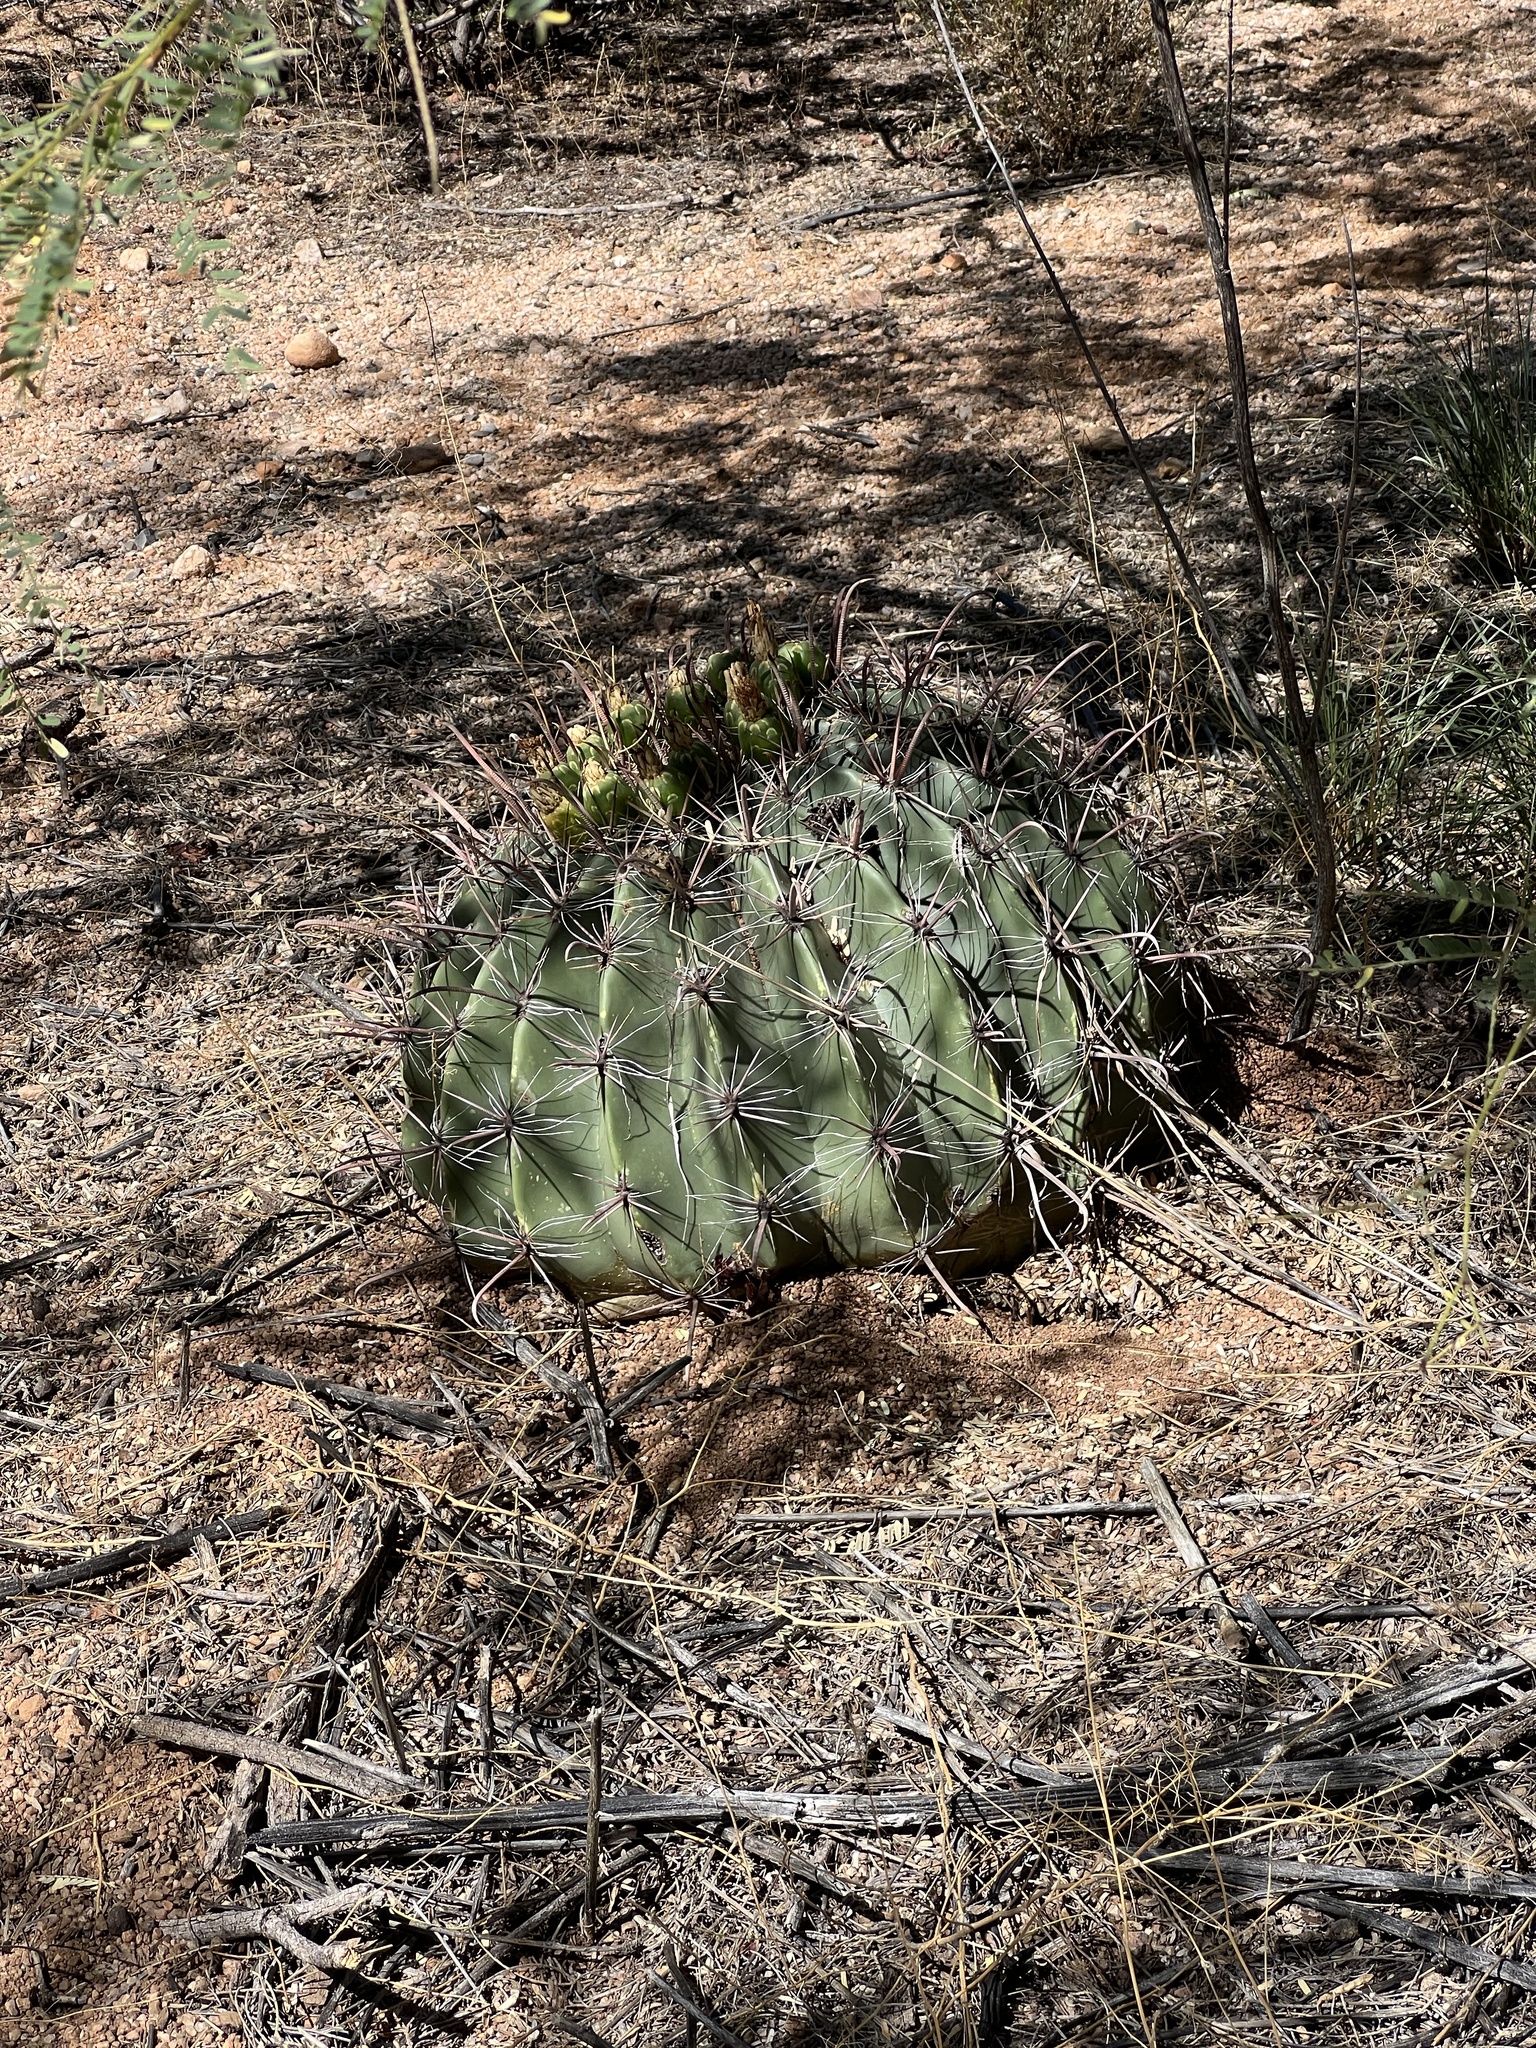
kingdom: Plantae
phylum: Tracheophyta
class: Magnoliopsida
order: Caryophyllales
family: Cactaceae
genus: Ferocactus
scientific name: Ferocactus wislizeni
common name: Candy barrel cactus
